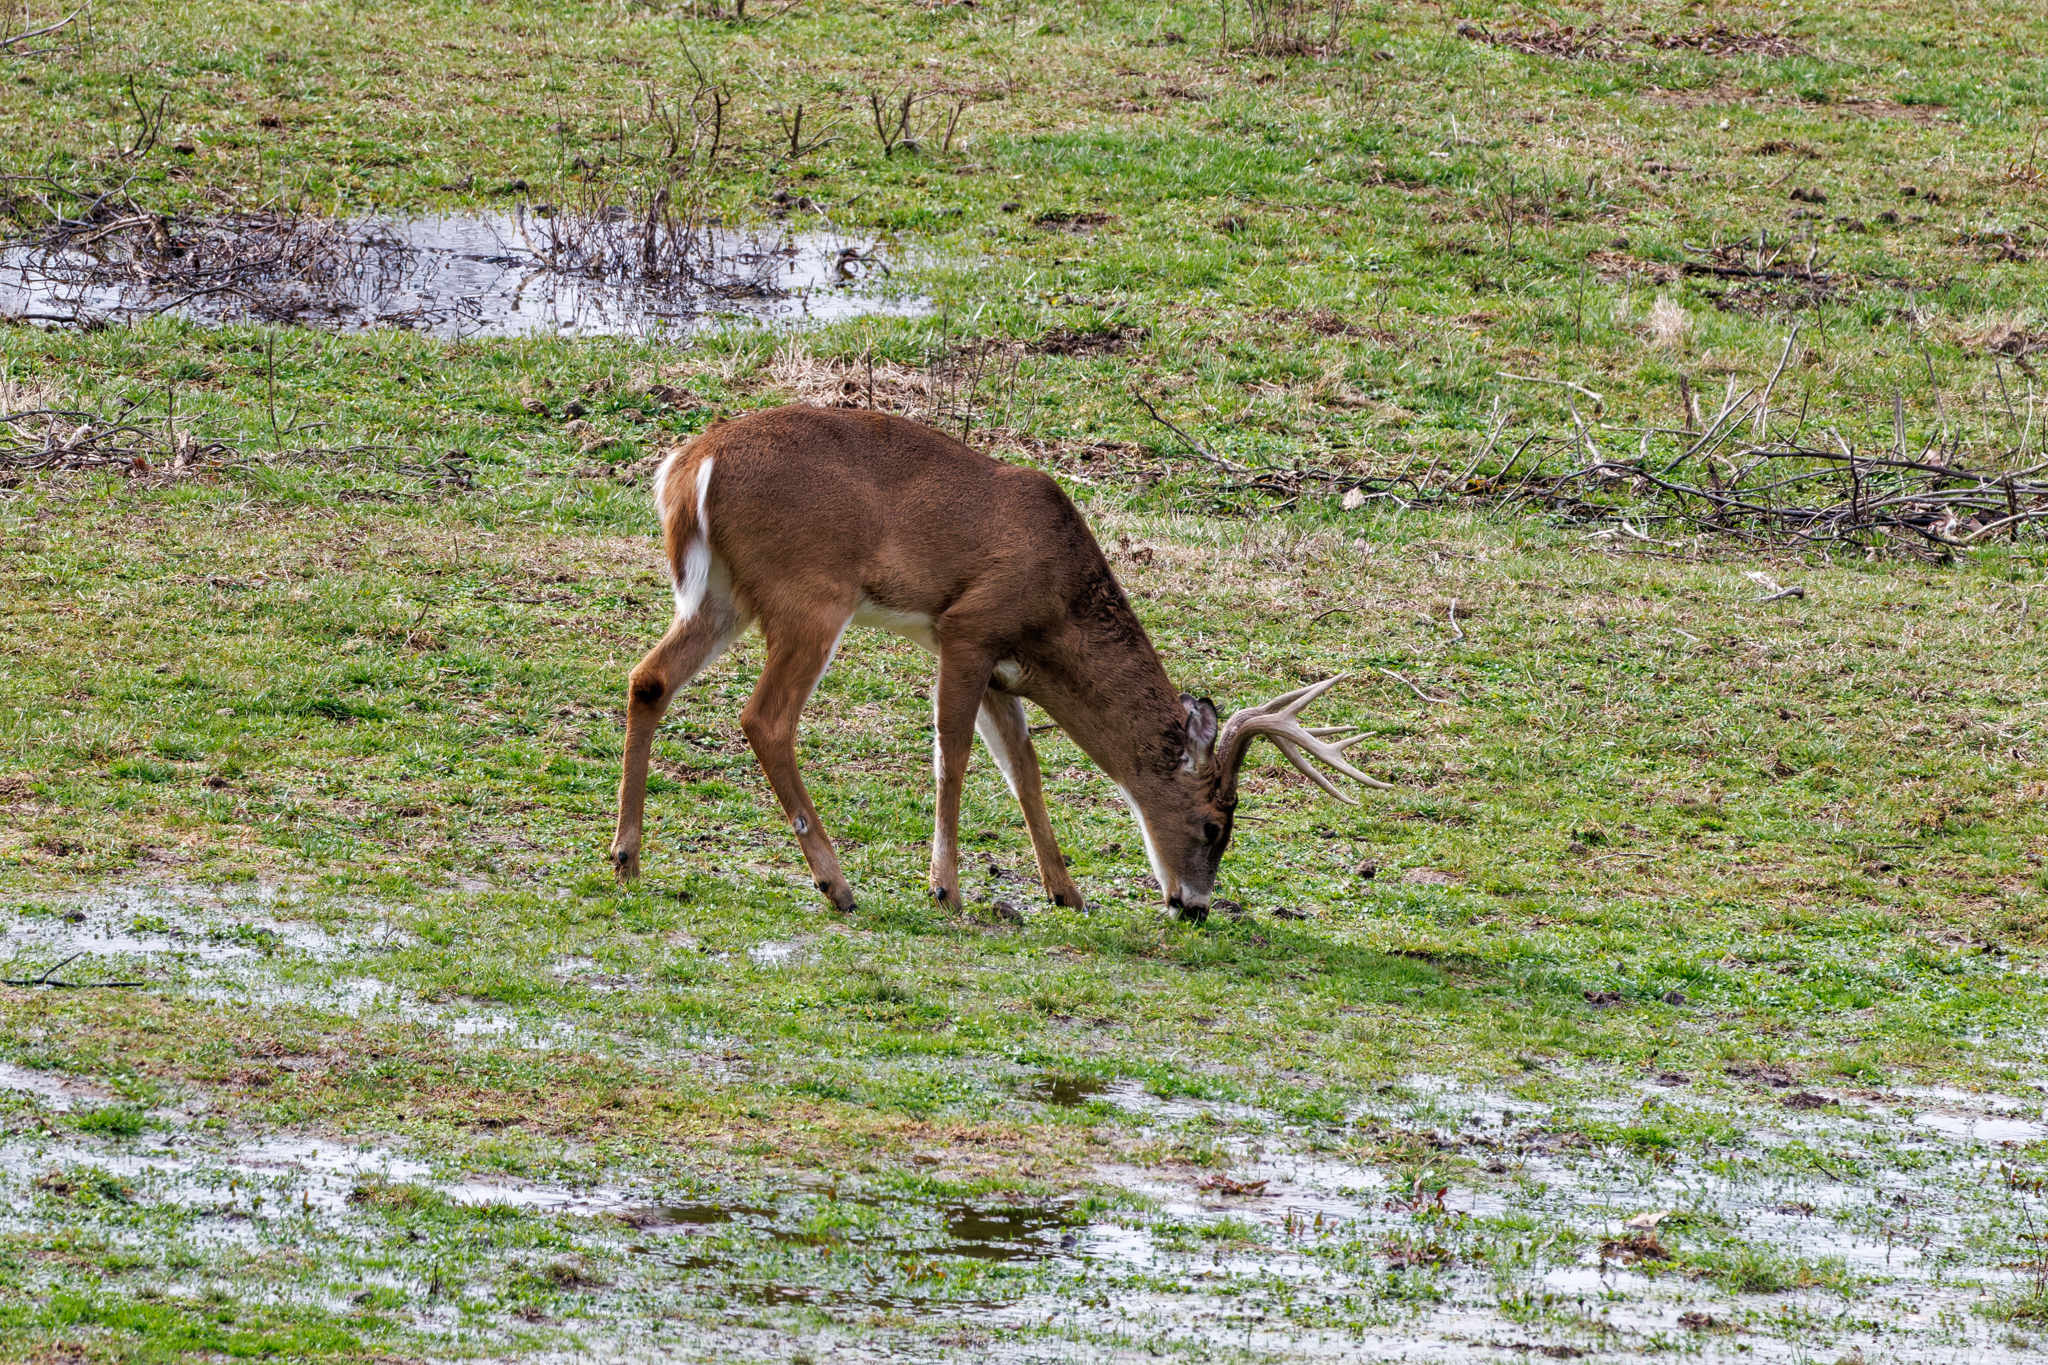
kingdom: Animalia
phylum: Chordata
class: Mammalia
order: Artiodactyla
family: Cervidae
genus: Odocoileus
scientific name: Odocoileus virginianus
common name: White-tailed deer
